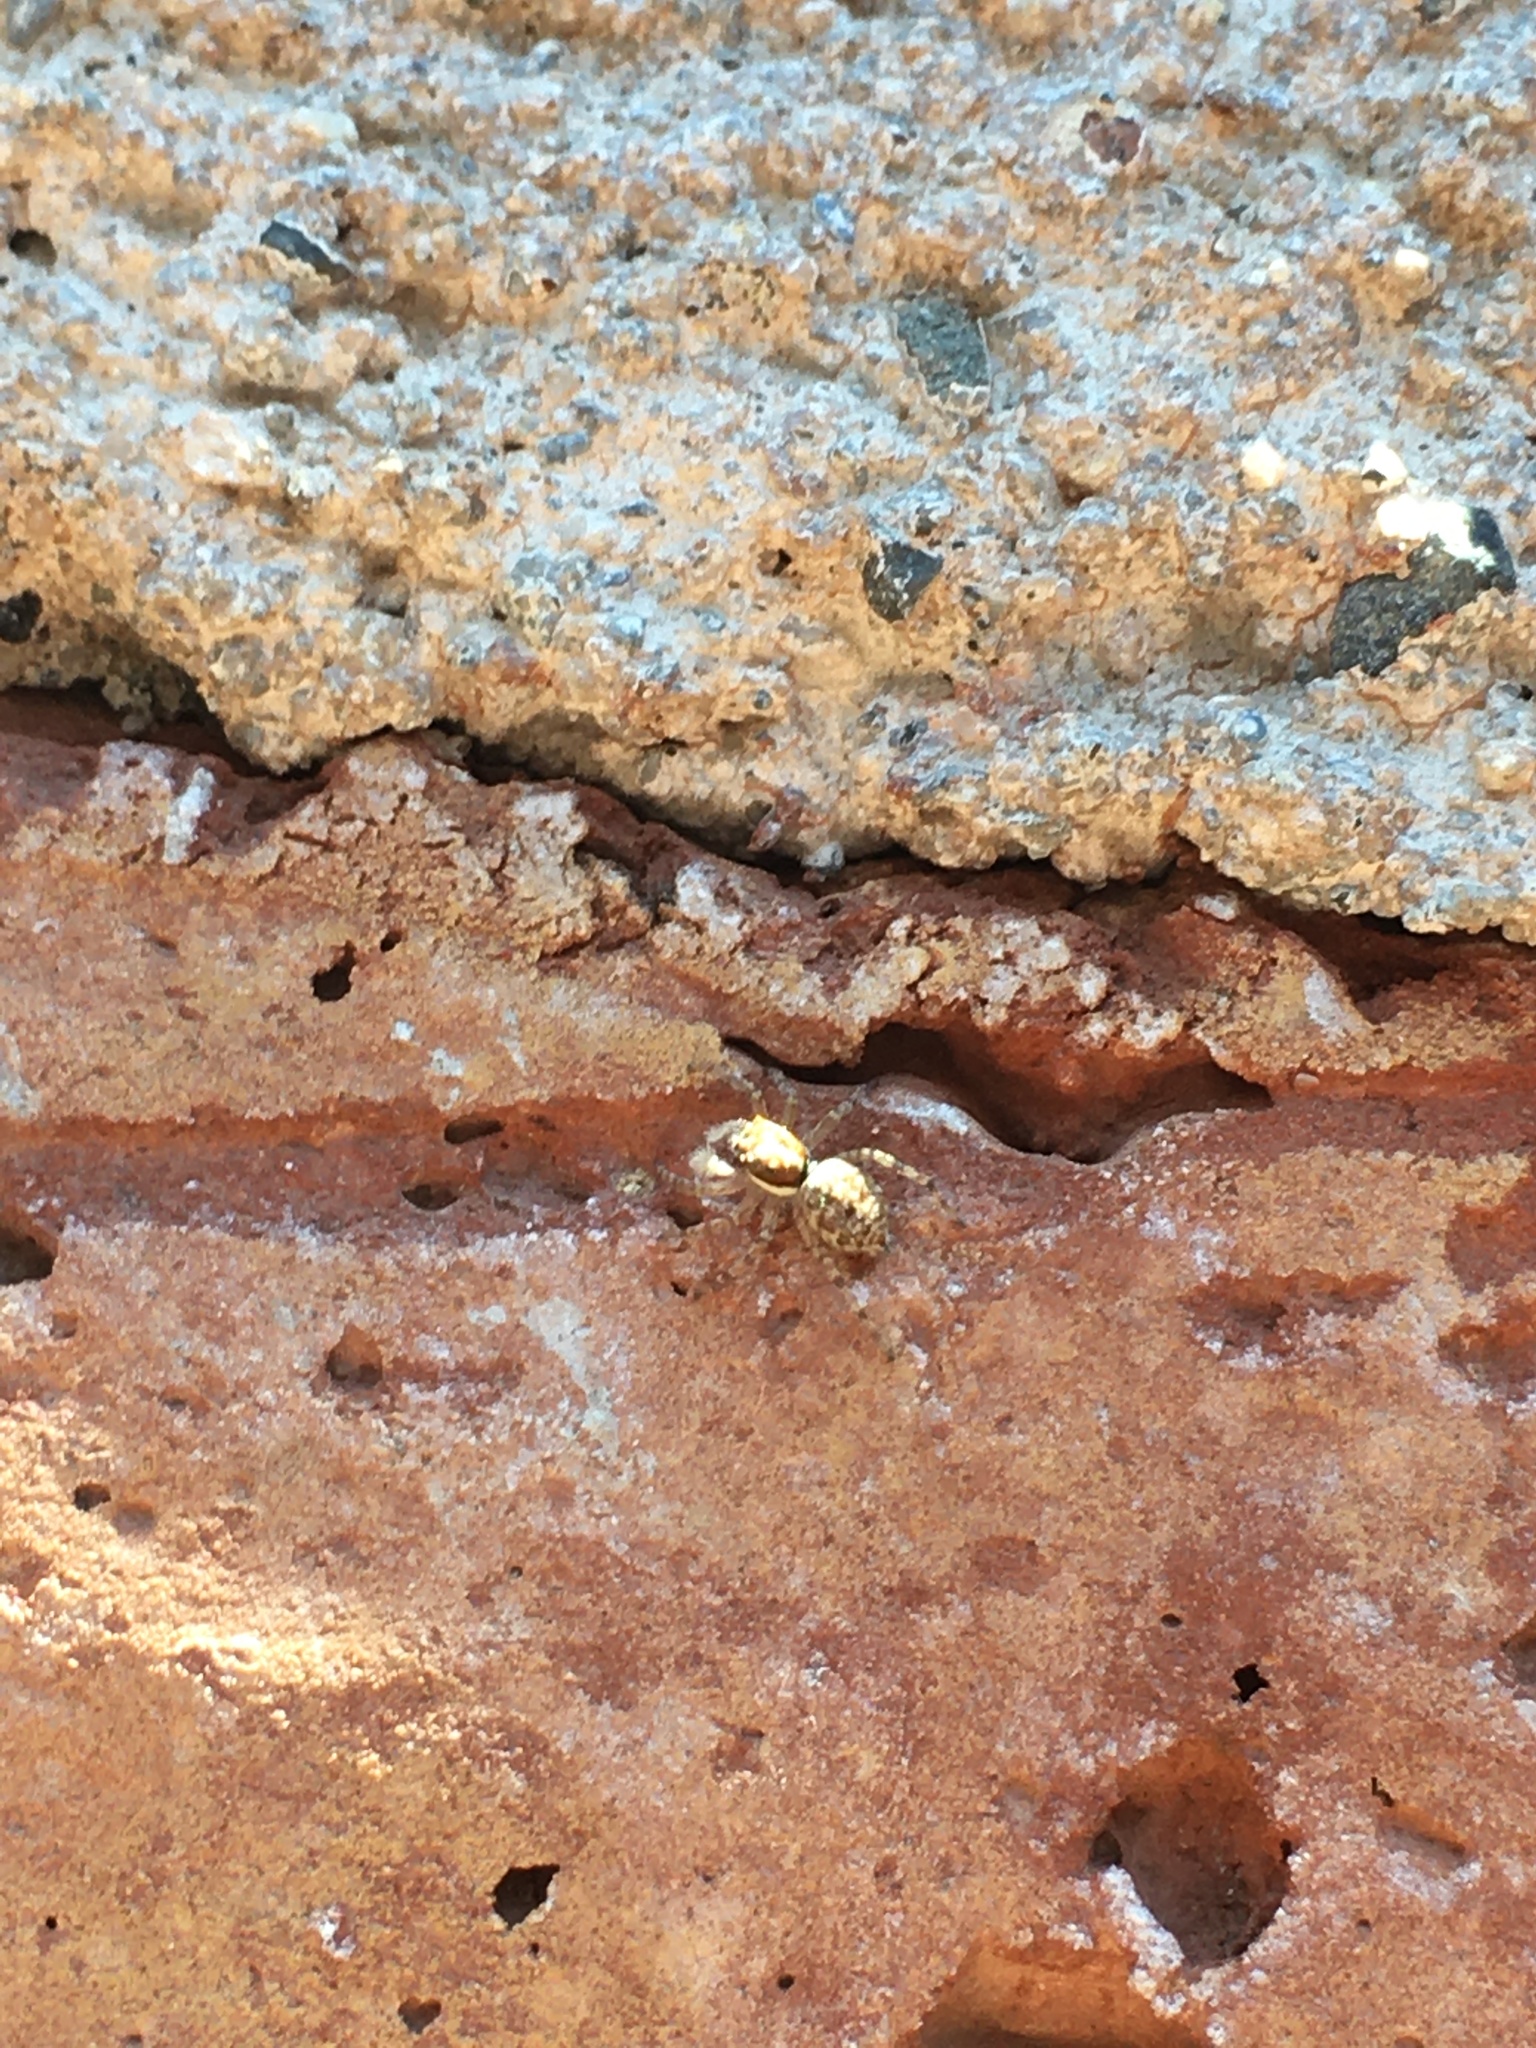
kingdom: Animalia
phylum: Arthropoda
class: Arachnida
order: Araneae
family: Salticidae
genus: Menemerus
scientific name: Menemerus semilimbatus
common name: Jumping spider
